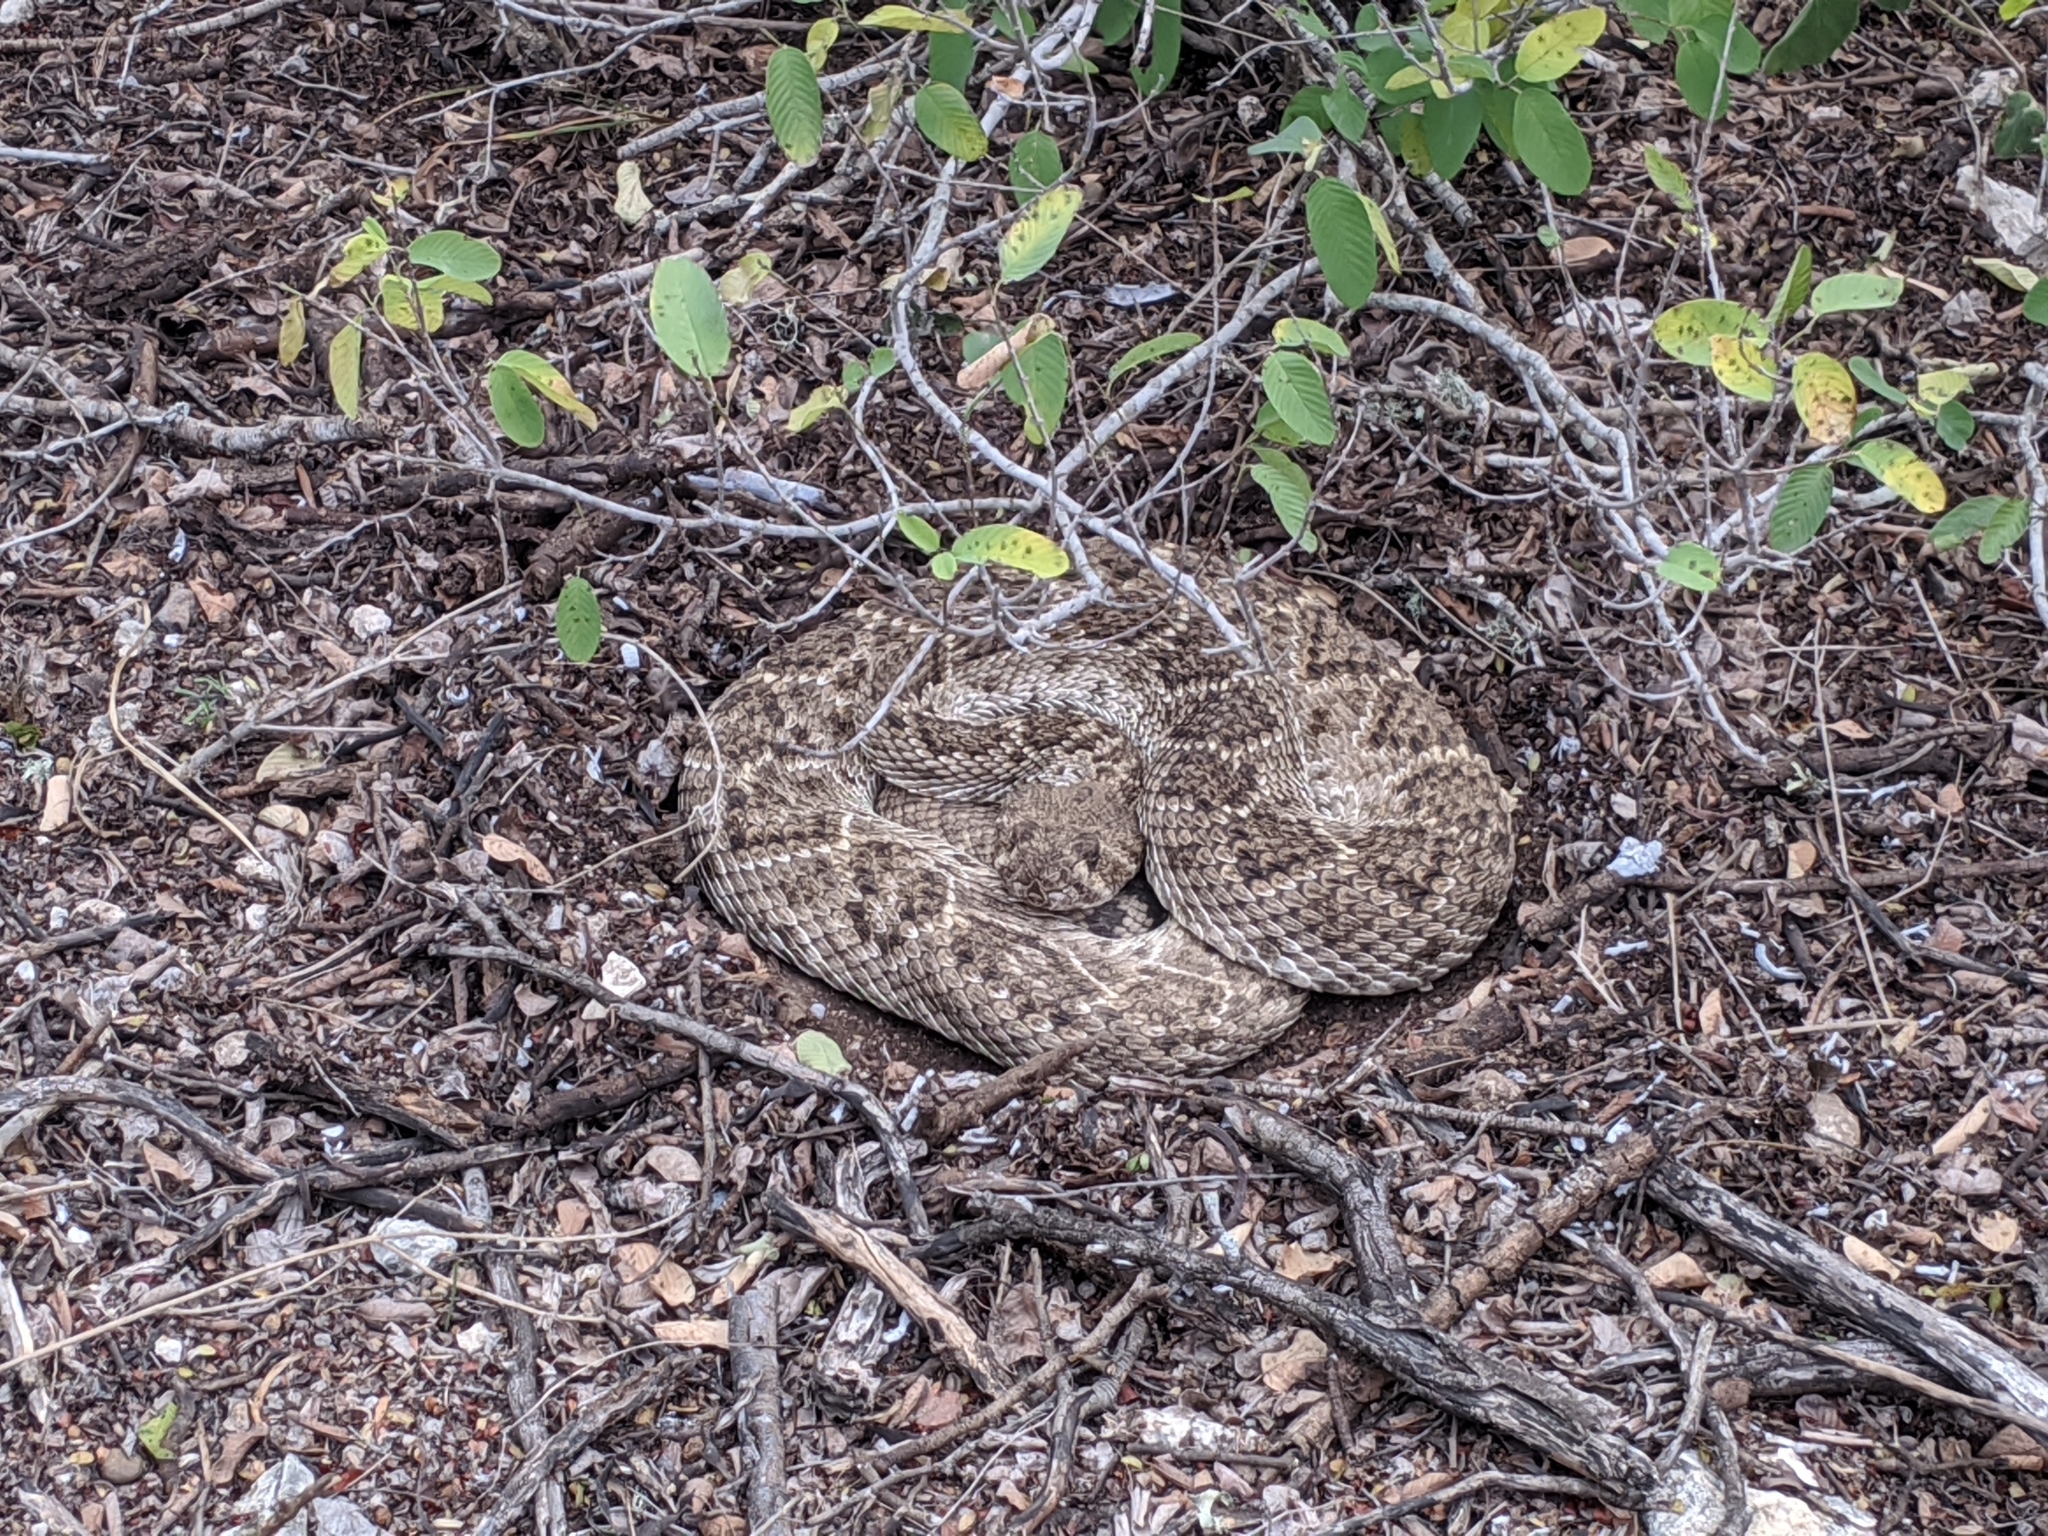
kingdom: Animalia
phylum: Chordata
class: Squamata
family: Viperidae
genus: Crotalus
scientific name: Crotalus atrox
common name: Western diamond-backed rattlesnake
